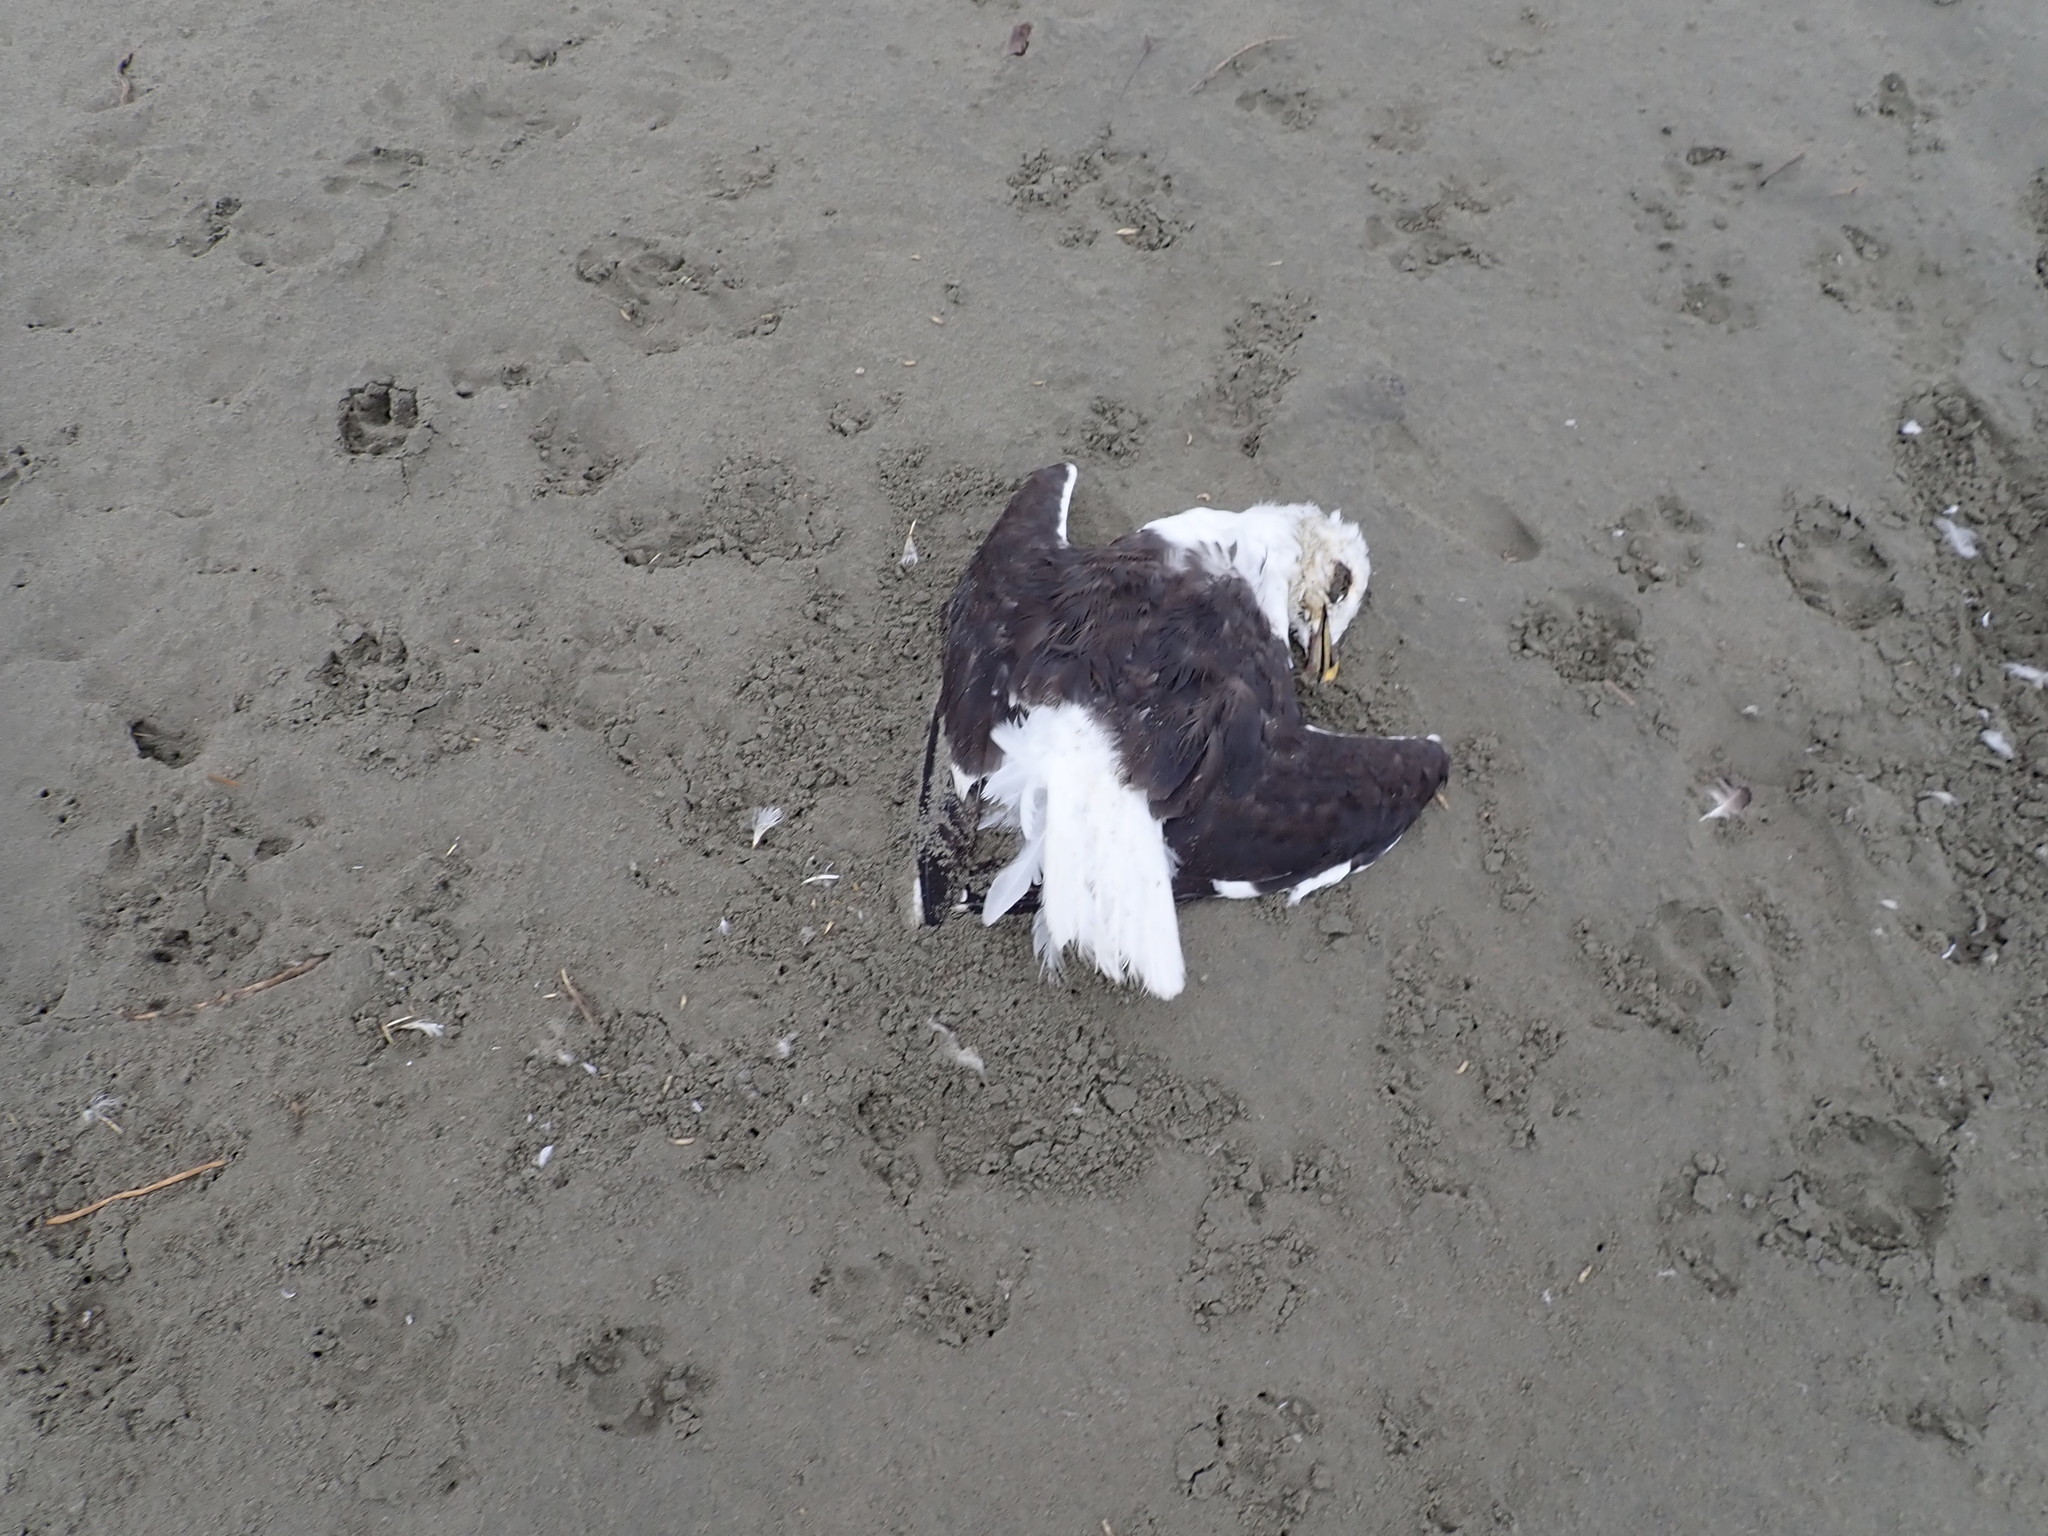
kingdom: Animalia
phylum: Chordata
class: Aves
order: Charadriiformes
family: Laridae
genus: Larus
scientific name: Larus dominicanus
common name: Kelp gull
